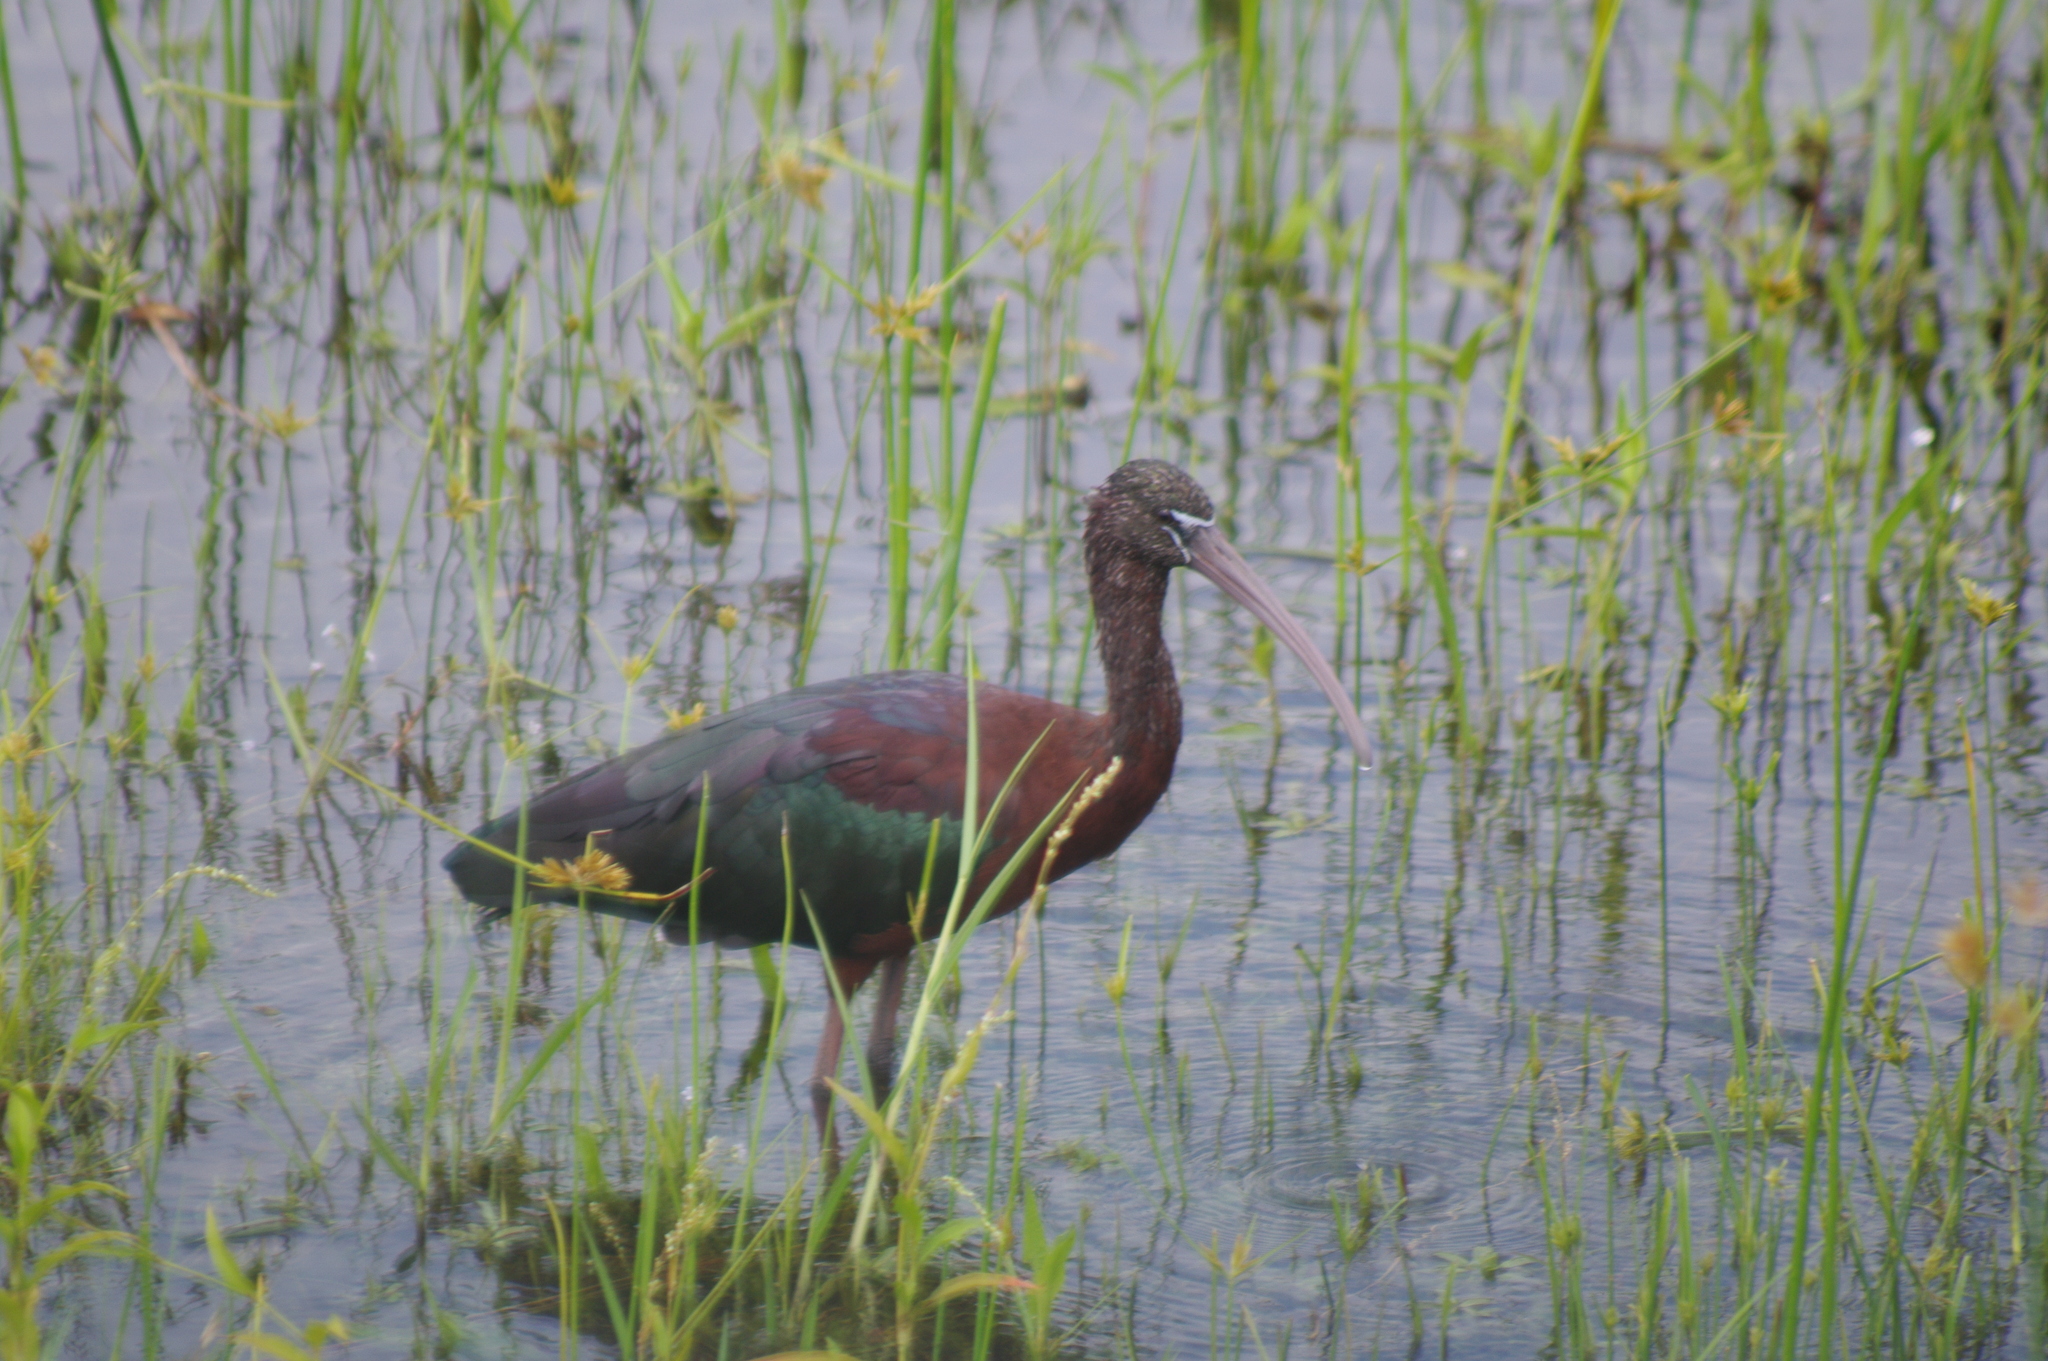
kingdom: Animalia
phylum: Chordata
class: Aves
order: Pelecaniformes
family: Threskiornithidae
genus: Plegadis
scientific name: Plegadis falcinellus
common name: Glossy ibis
